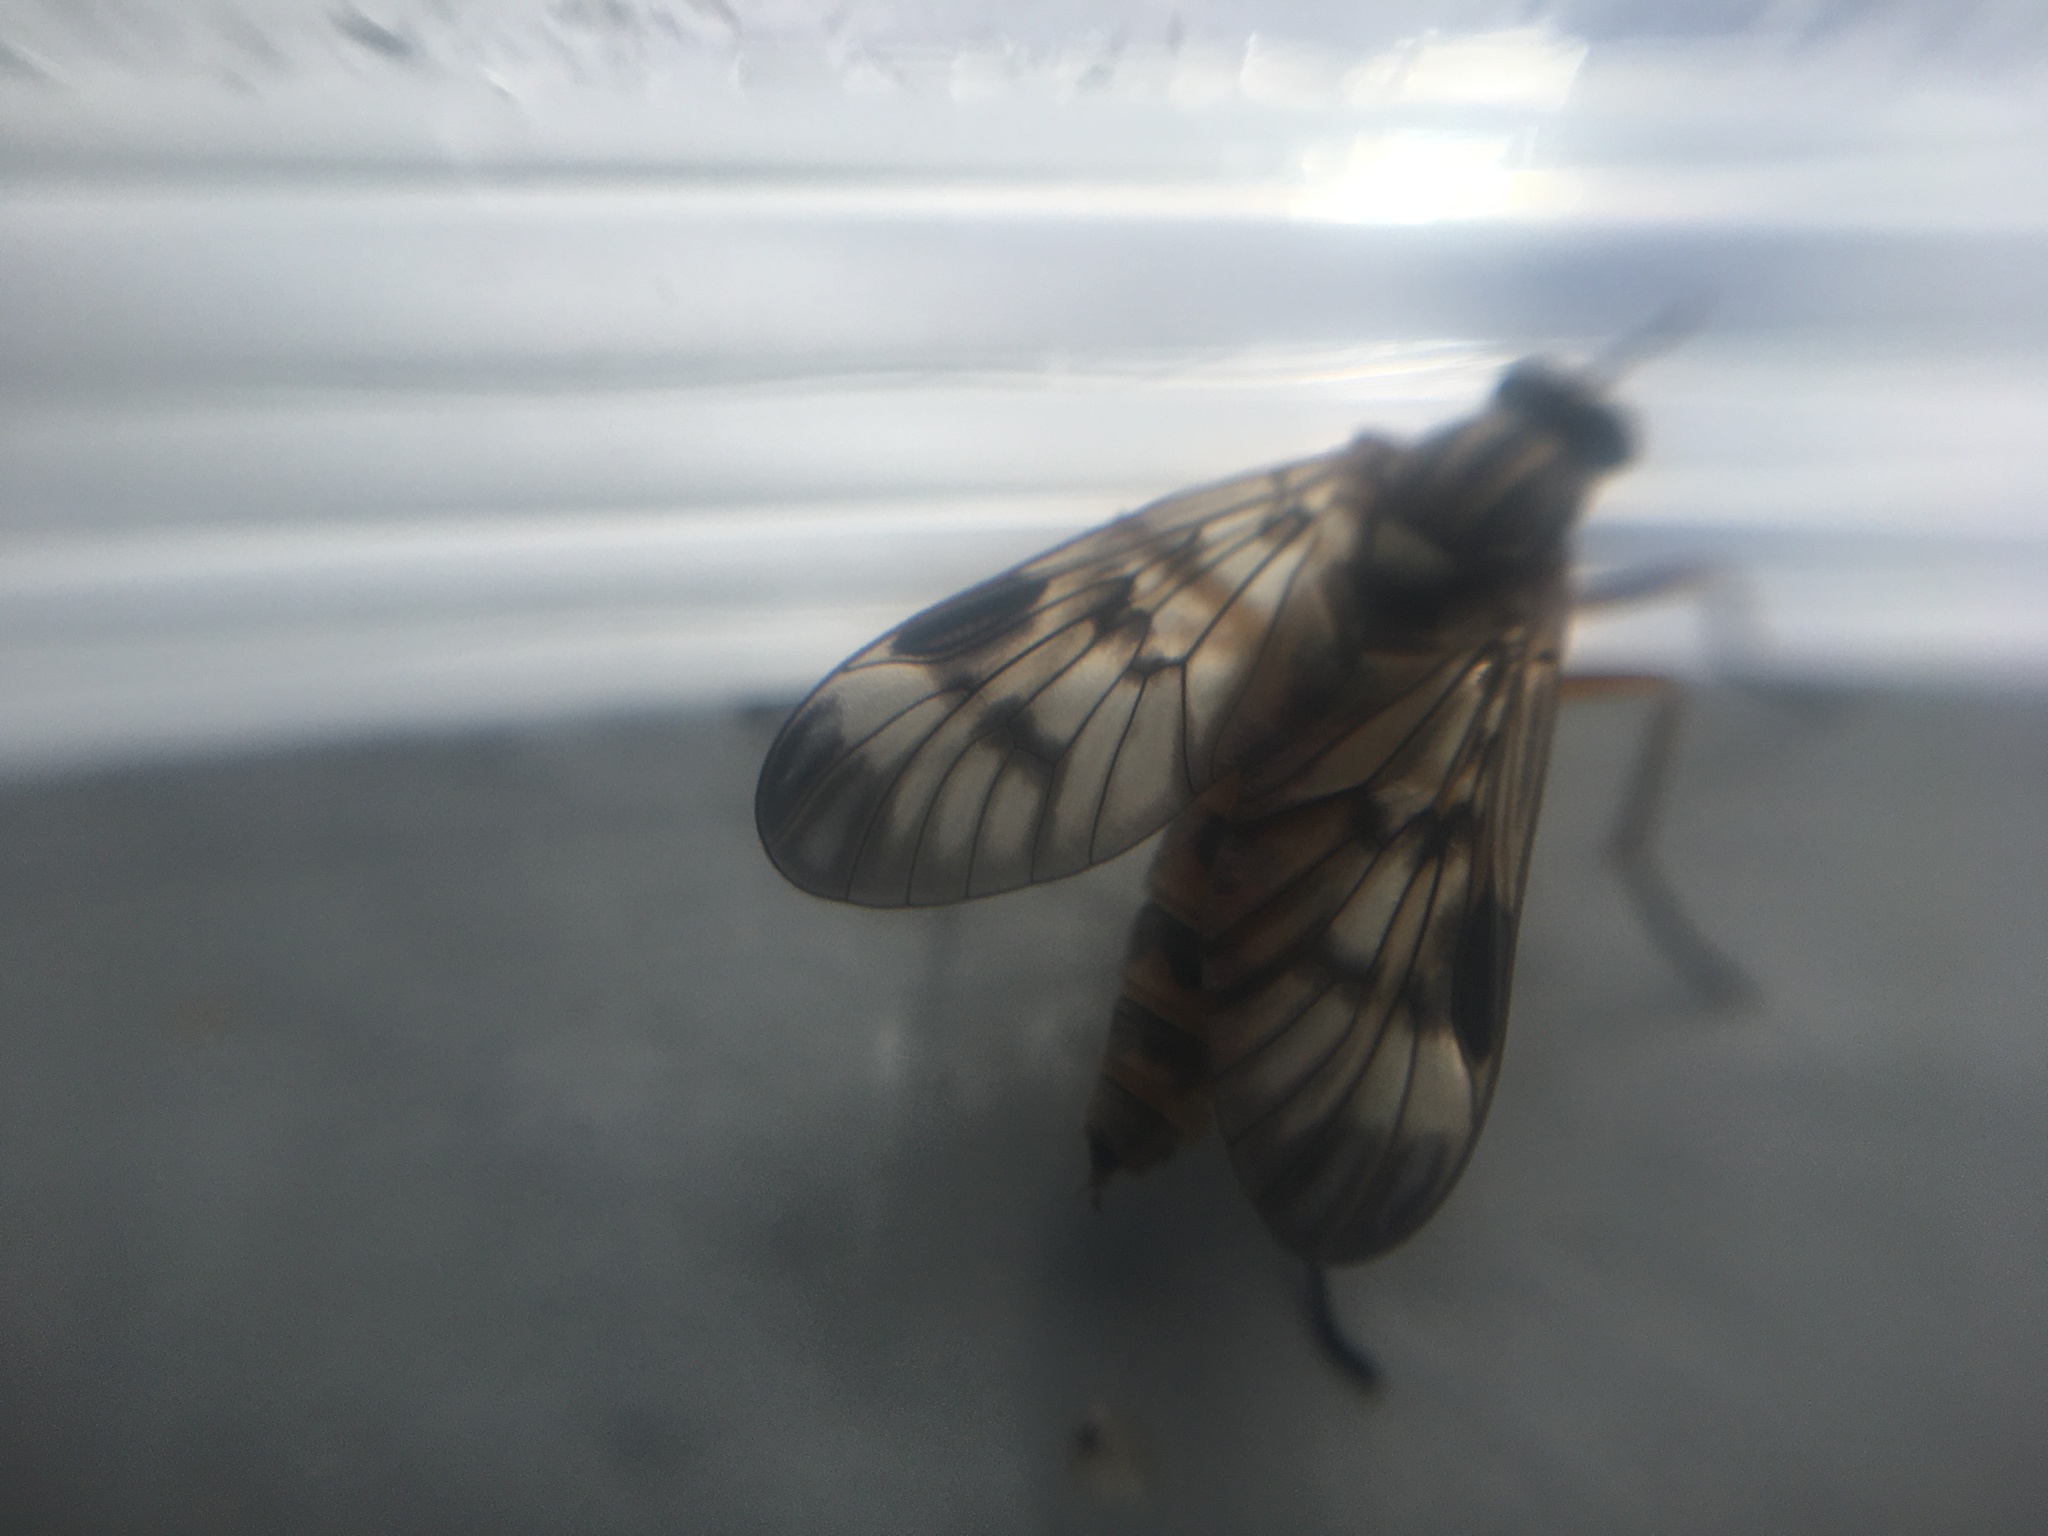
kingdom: Animalia
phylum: Arthropoda
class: Insecta
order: Diptera
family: Rhagionidae
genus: Rhagio
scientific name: Rhagio scolopacea
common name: Downlooker snipefly
